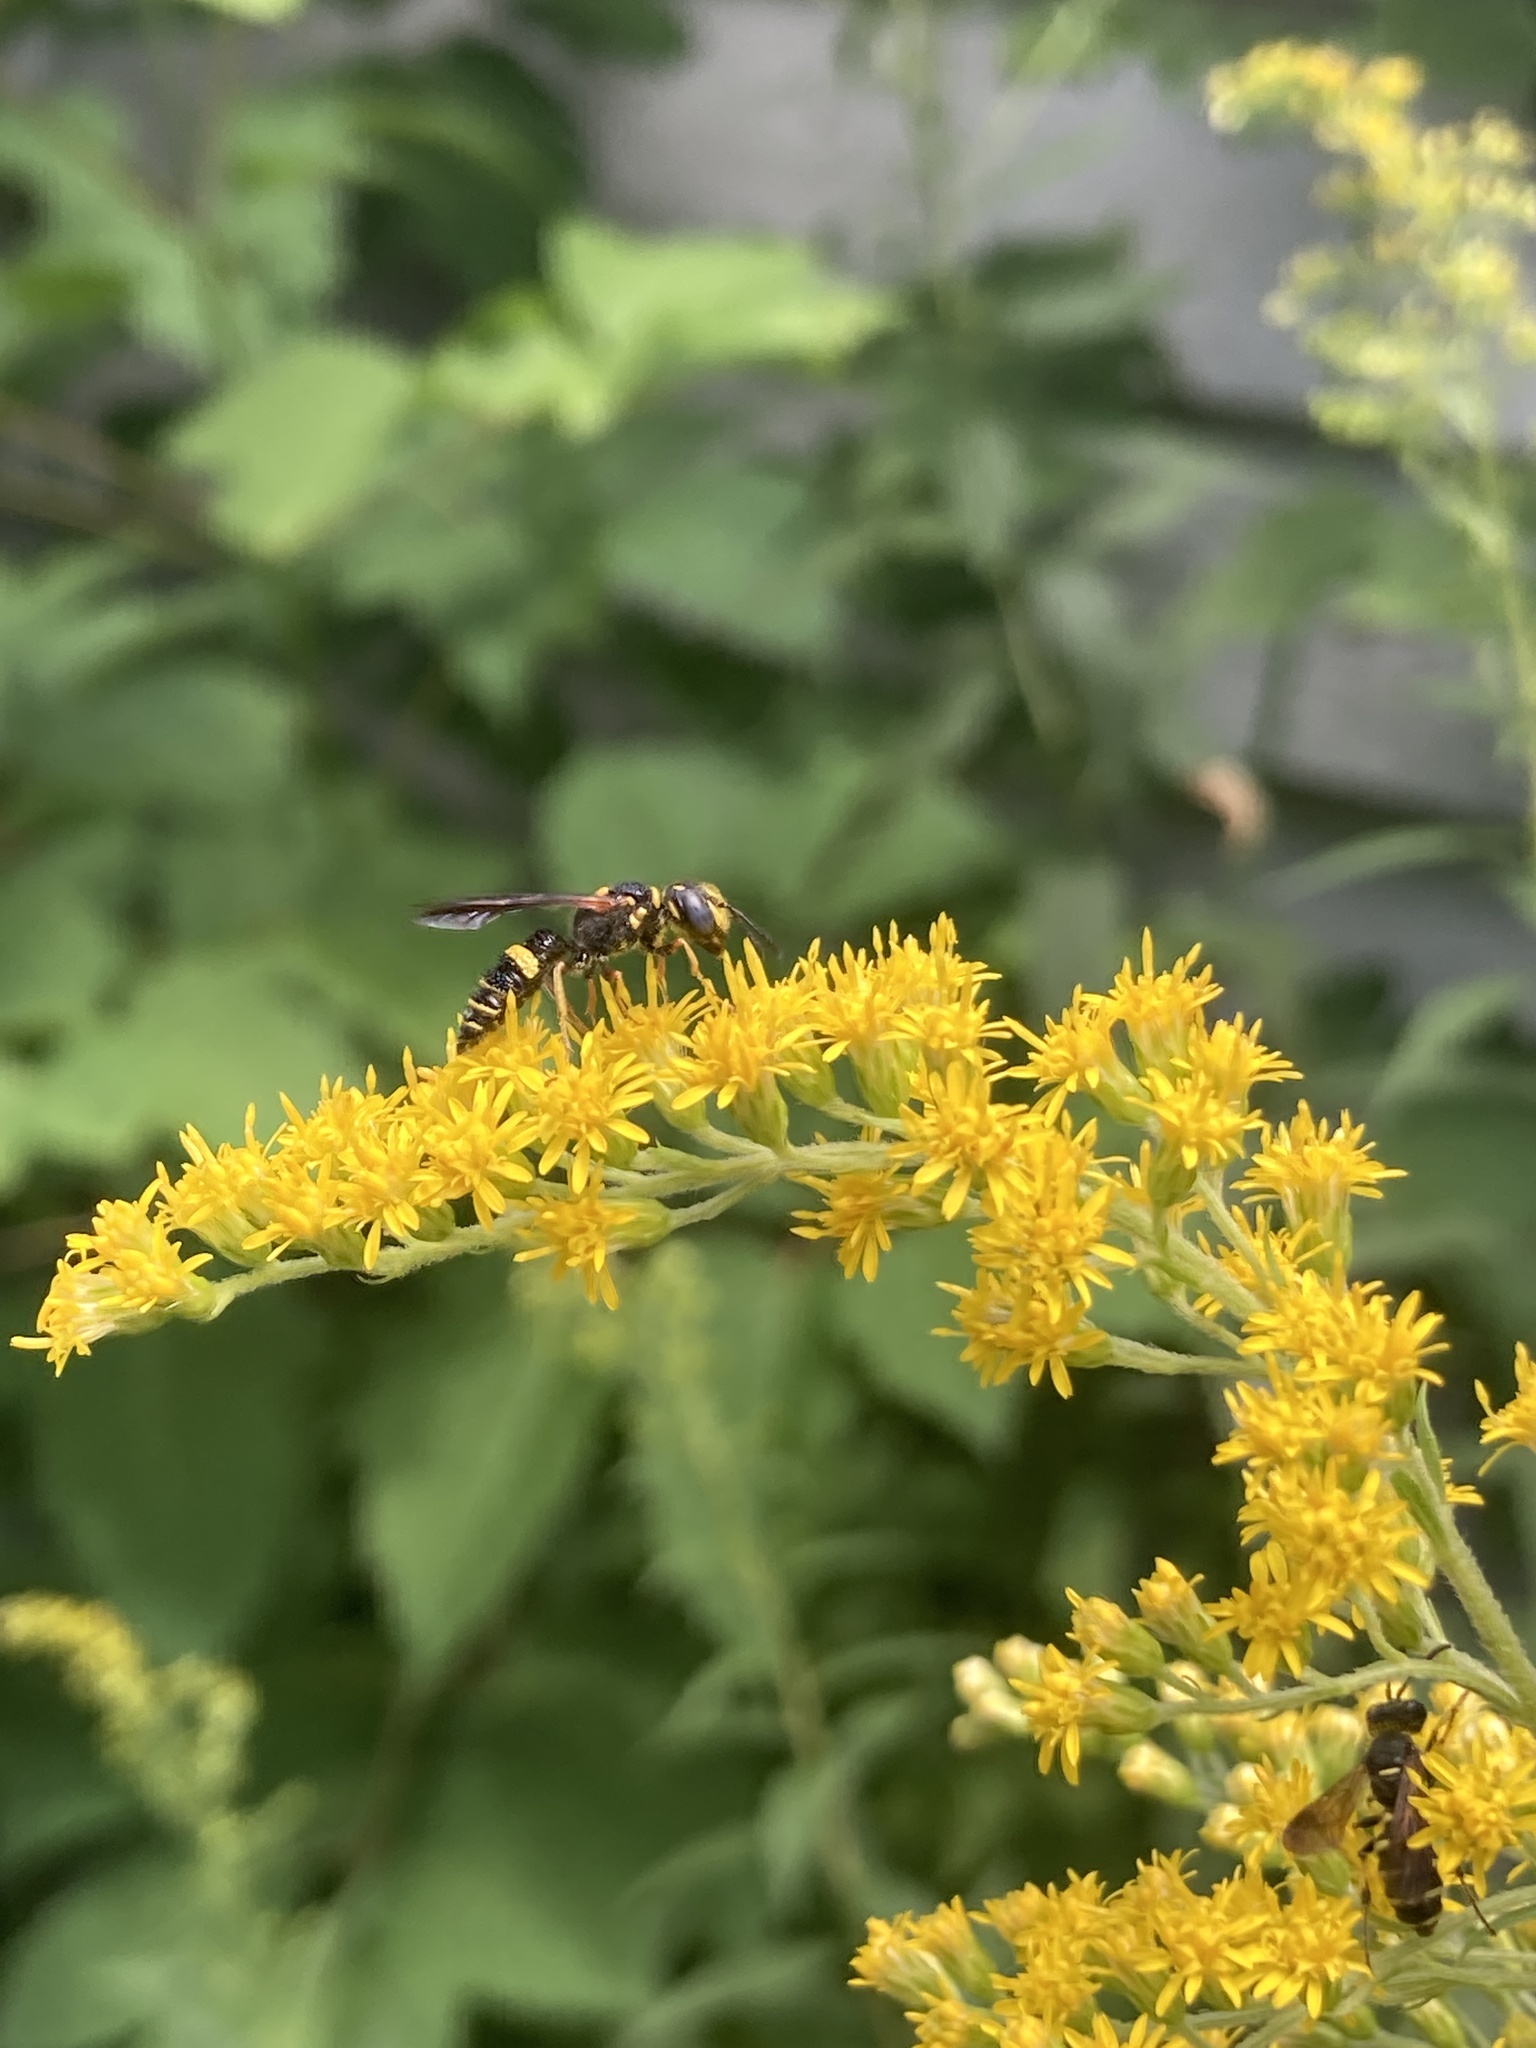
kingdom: Animalia
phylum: Arthropoda
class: Insecta
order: Hymenoptera
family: Crabronidae
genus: Philanthus
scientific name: Philanthus gibbosus
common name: Humped beewolf
